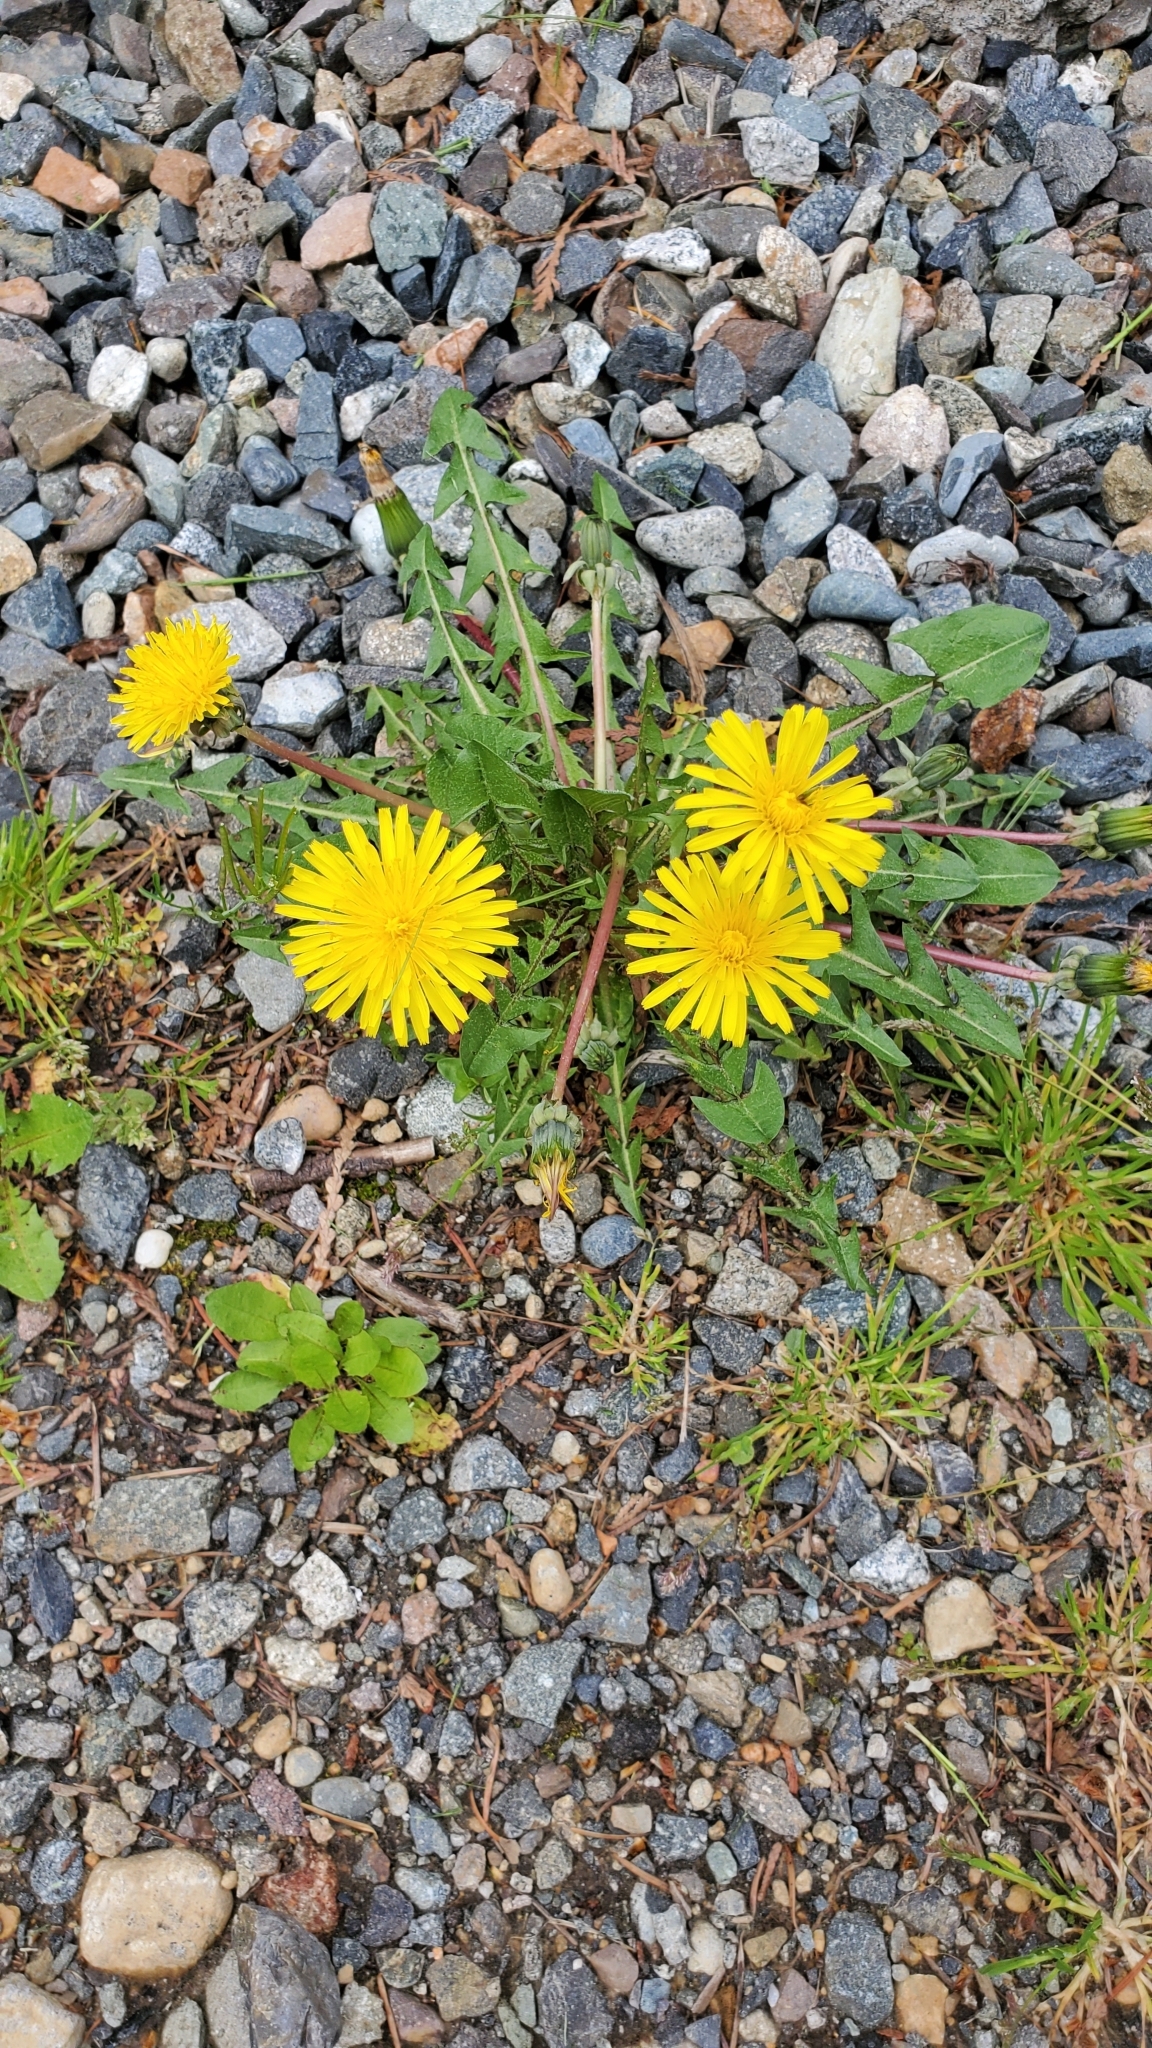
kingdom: Plantae
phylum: Tracheophyta
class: Magnoliopsida
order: Asterales
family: Asteraceae
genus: Taraxacum
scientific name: Taraxacum officinale
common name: Common dandelion
